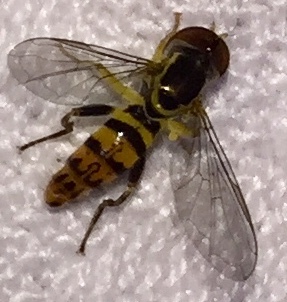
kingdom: Animalia
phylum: Arthropoda
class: Insecta
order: Diptera
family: Syrphidae
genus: Toxomerus
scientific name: Toxomerus geminatus
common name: Eastern calligrapher
